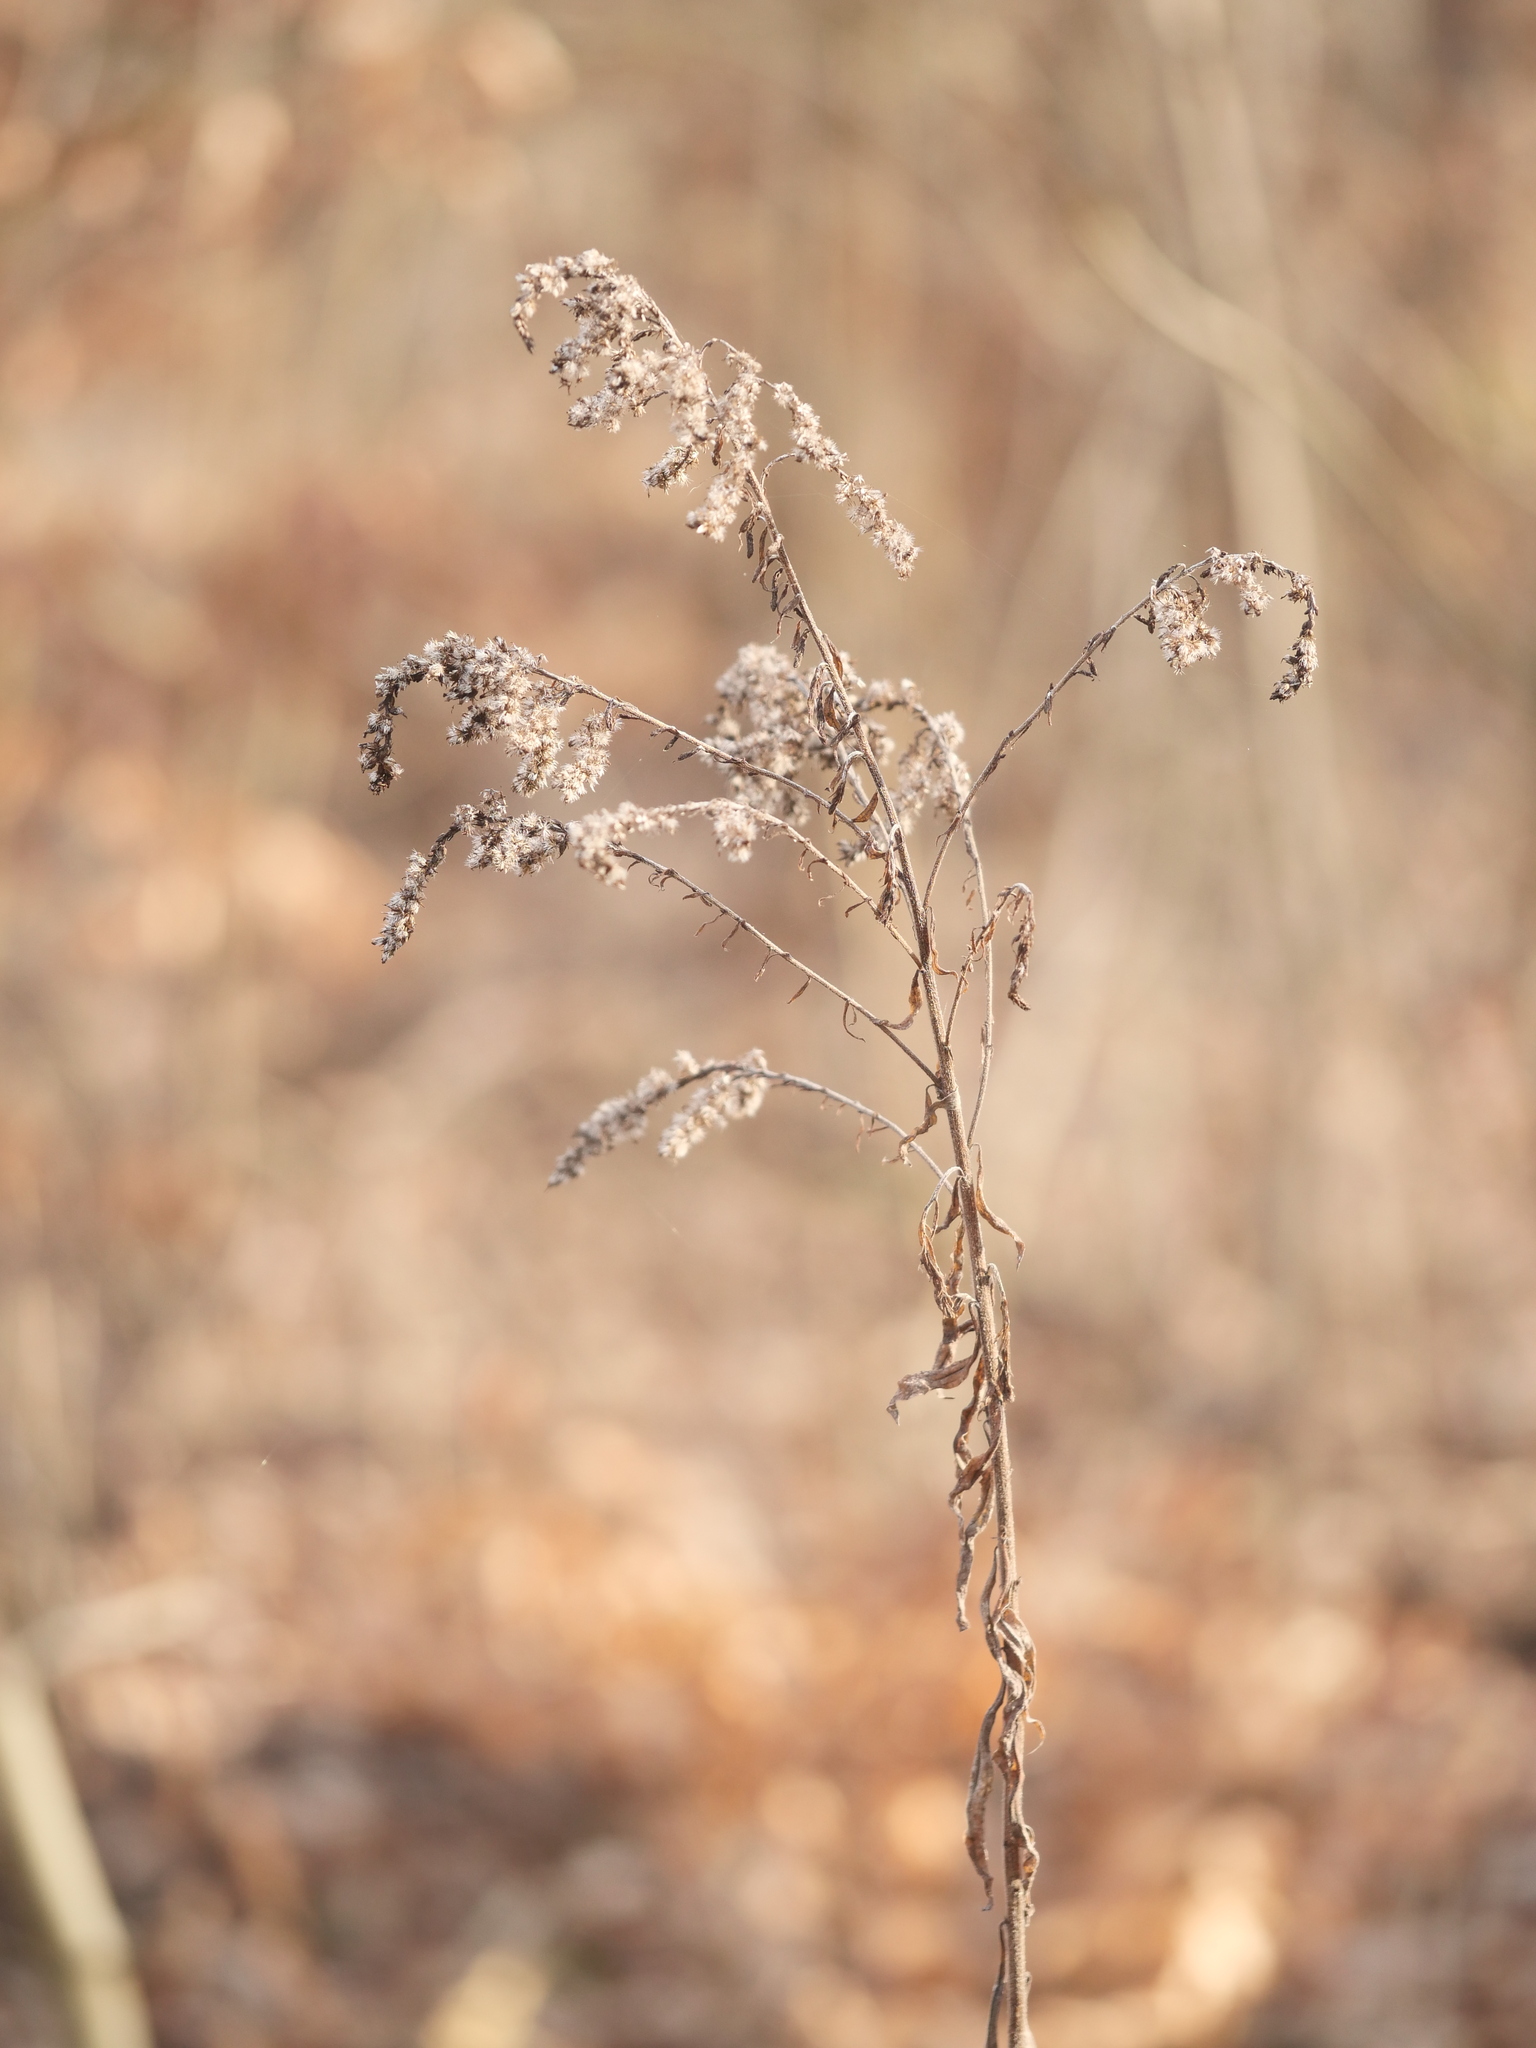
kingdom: Plantae
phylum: Tracheophyta
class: Magnoliopsida
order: Asterales
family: Asteraceae
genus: Solidago
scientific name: Solidago canadensis
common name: Canada goldenrod
